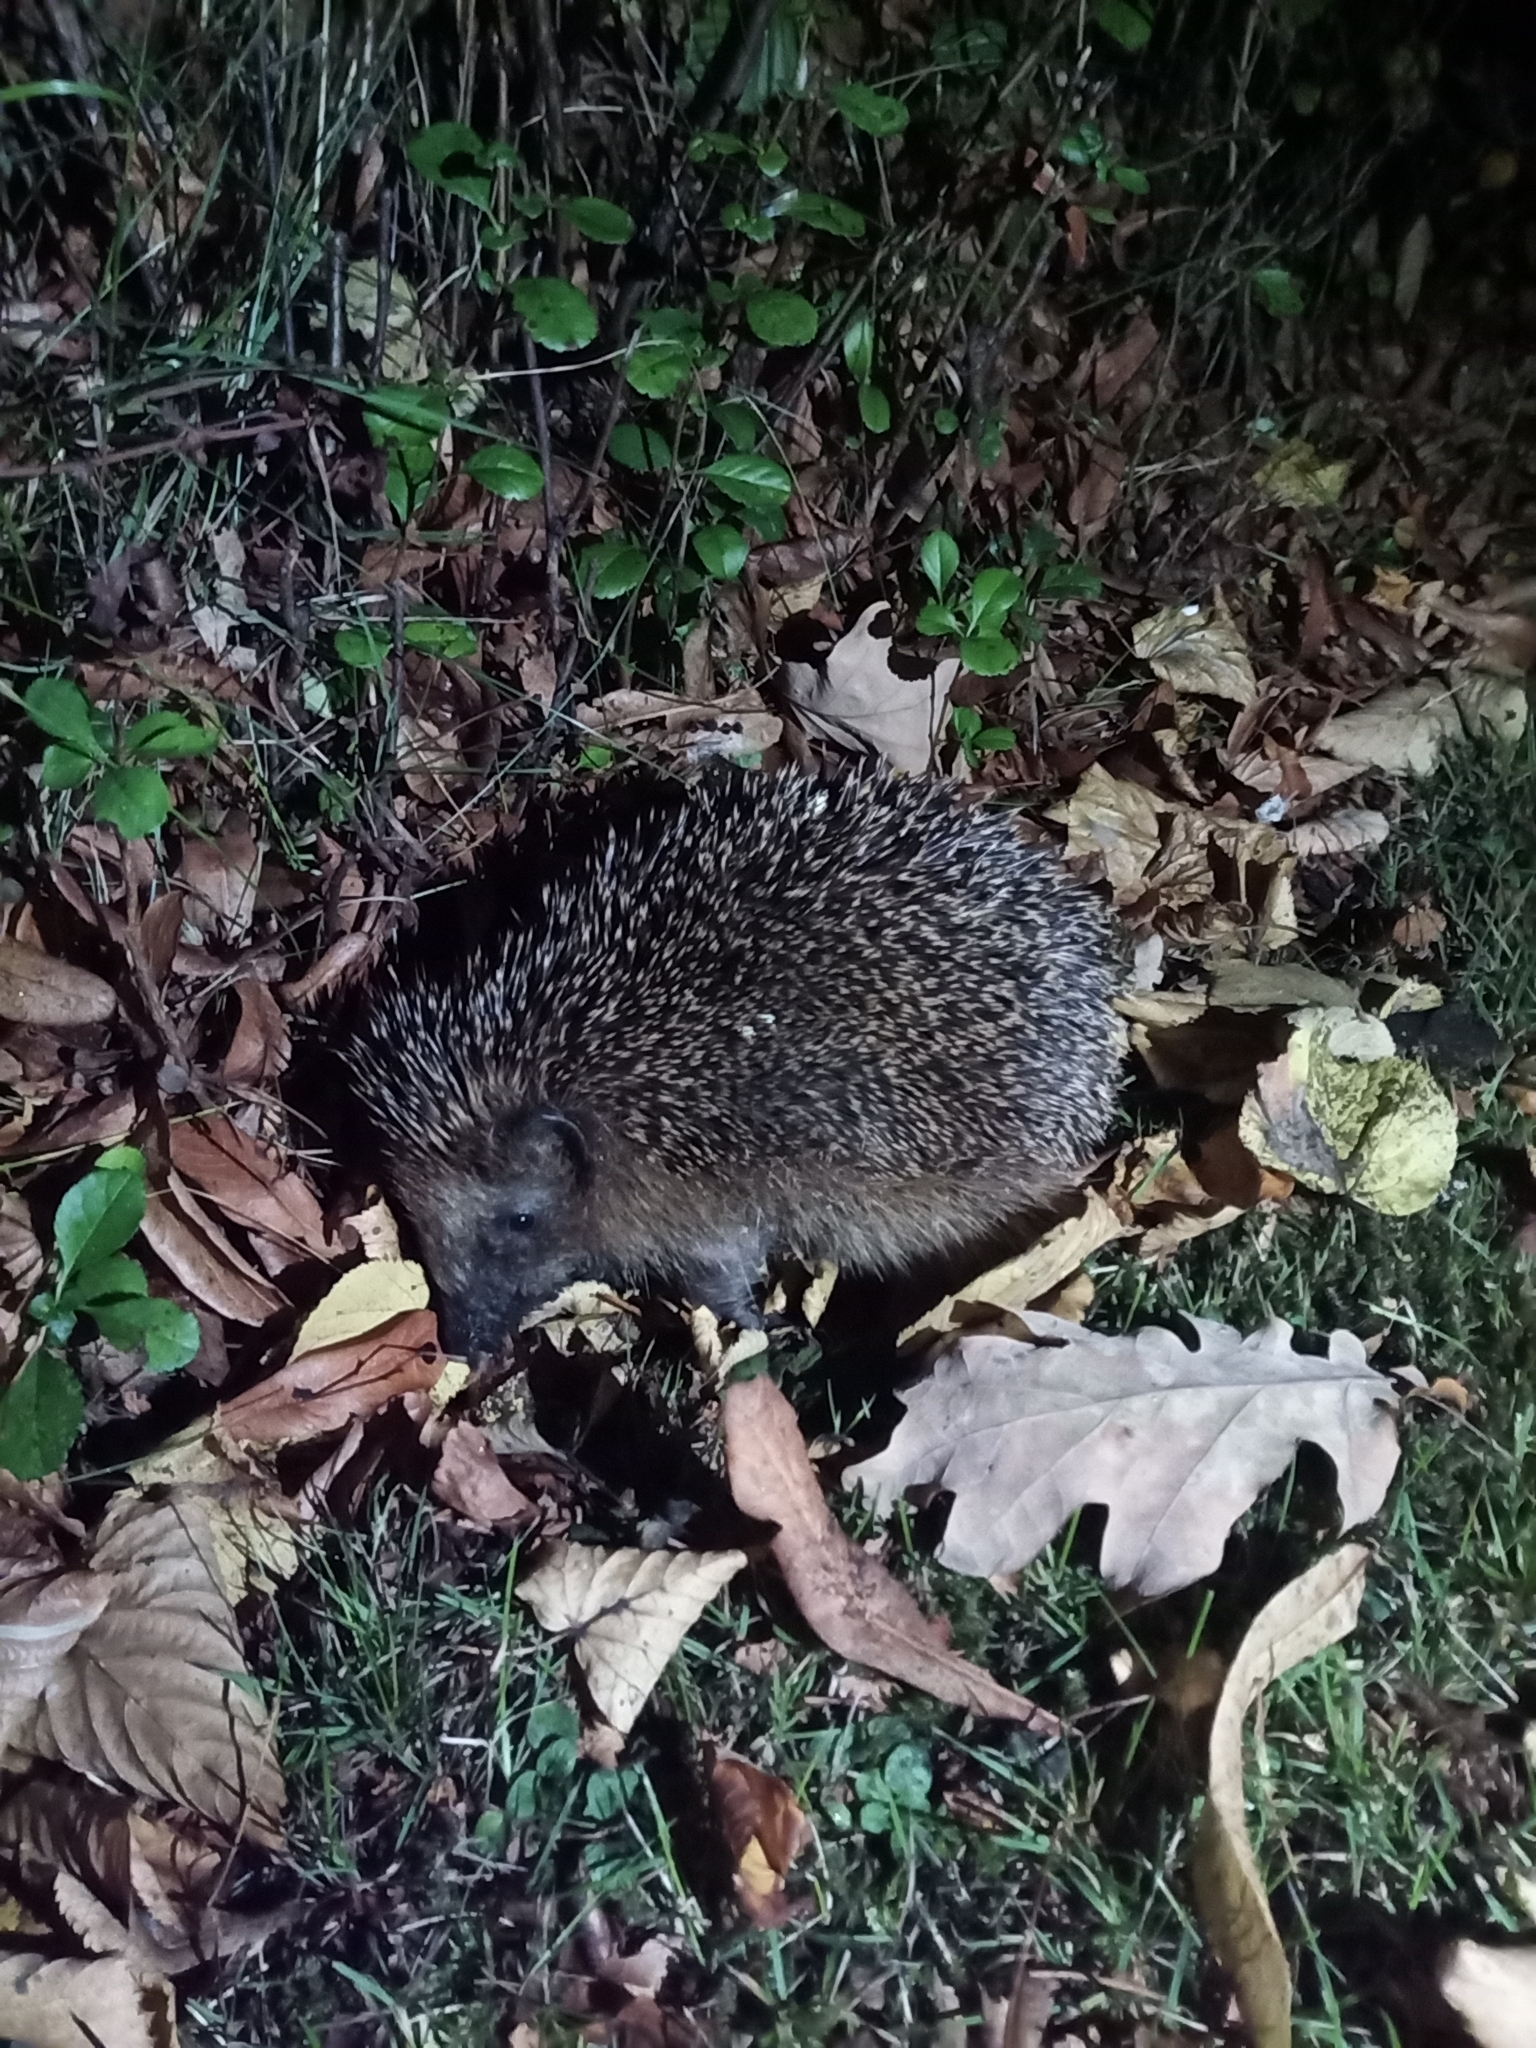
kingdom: Animalia
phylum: Chordata
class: Mammalia
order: Erinaceomorpha
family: Erinaceidae
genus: Erinaceus
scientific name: Erinaceus europaeus
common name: West european hedgehog
